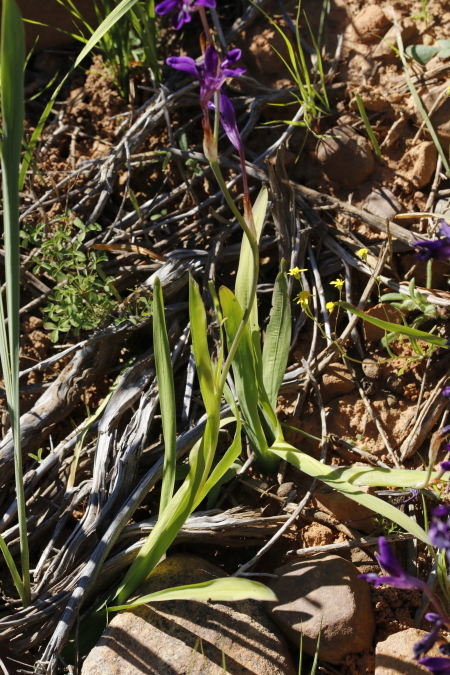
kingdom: Plantae
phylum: Tracheophyta
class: Liliopsida
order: Asparagales
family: Iridaceae
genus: Sparaxis
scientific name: Sparaxis metelerkampiae
